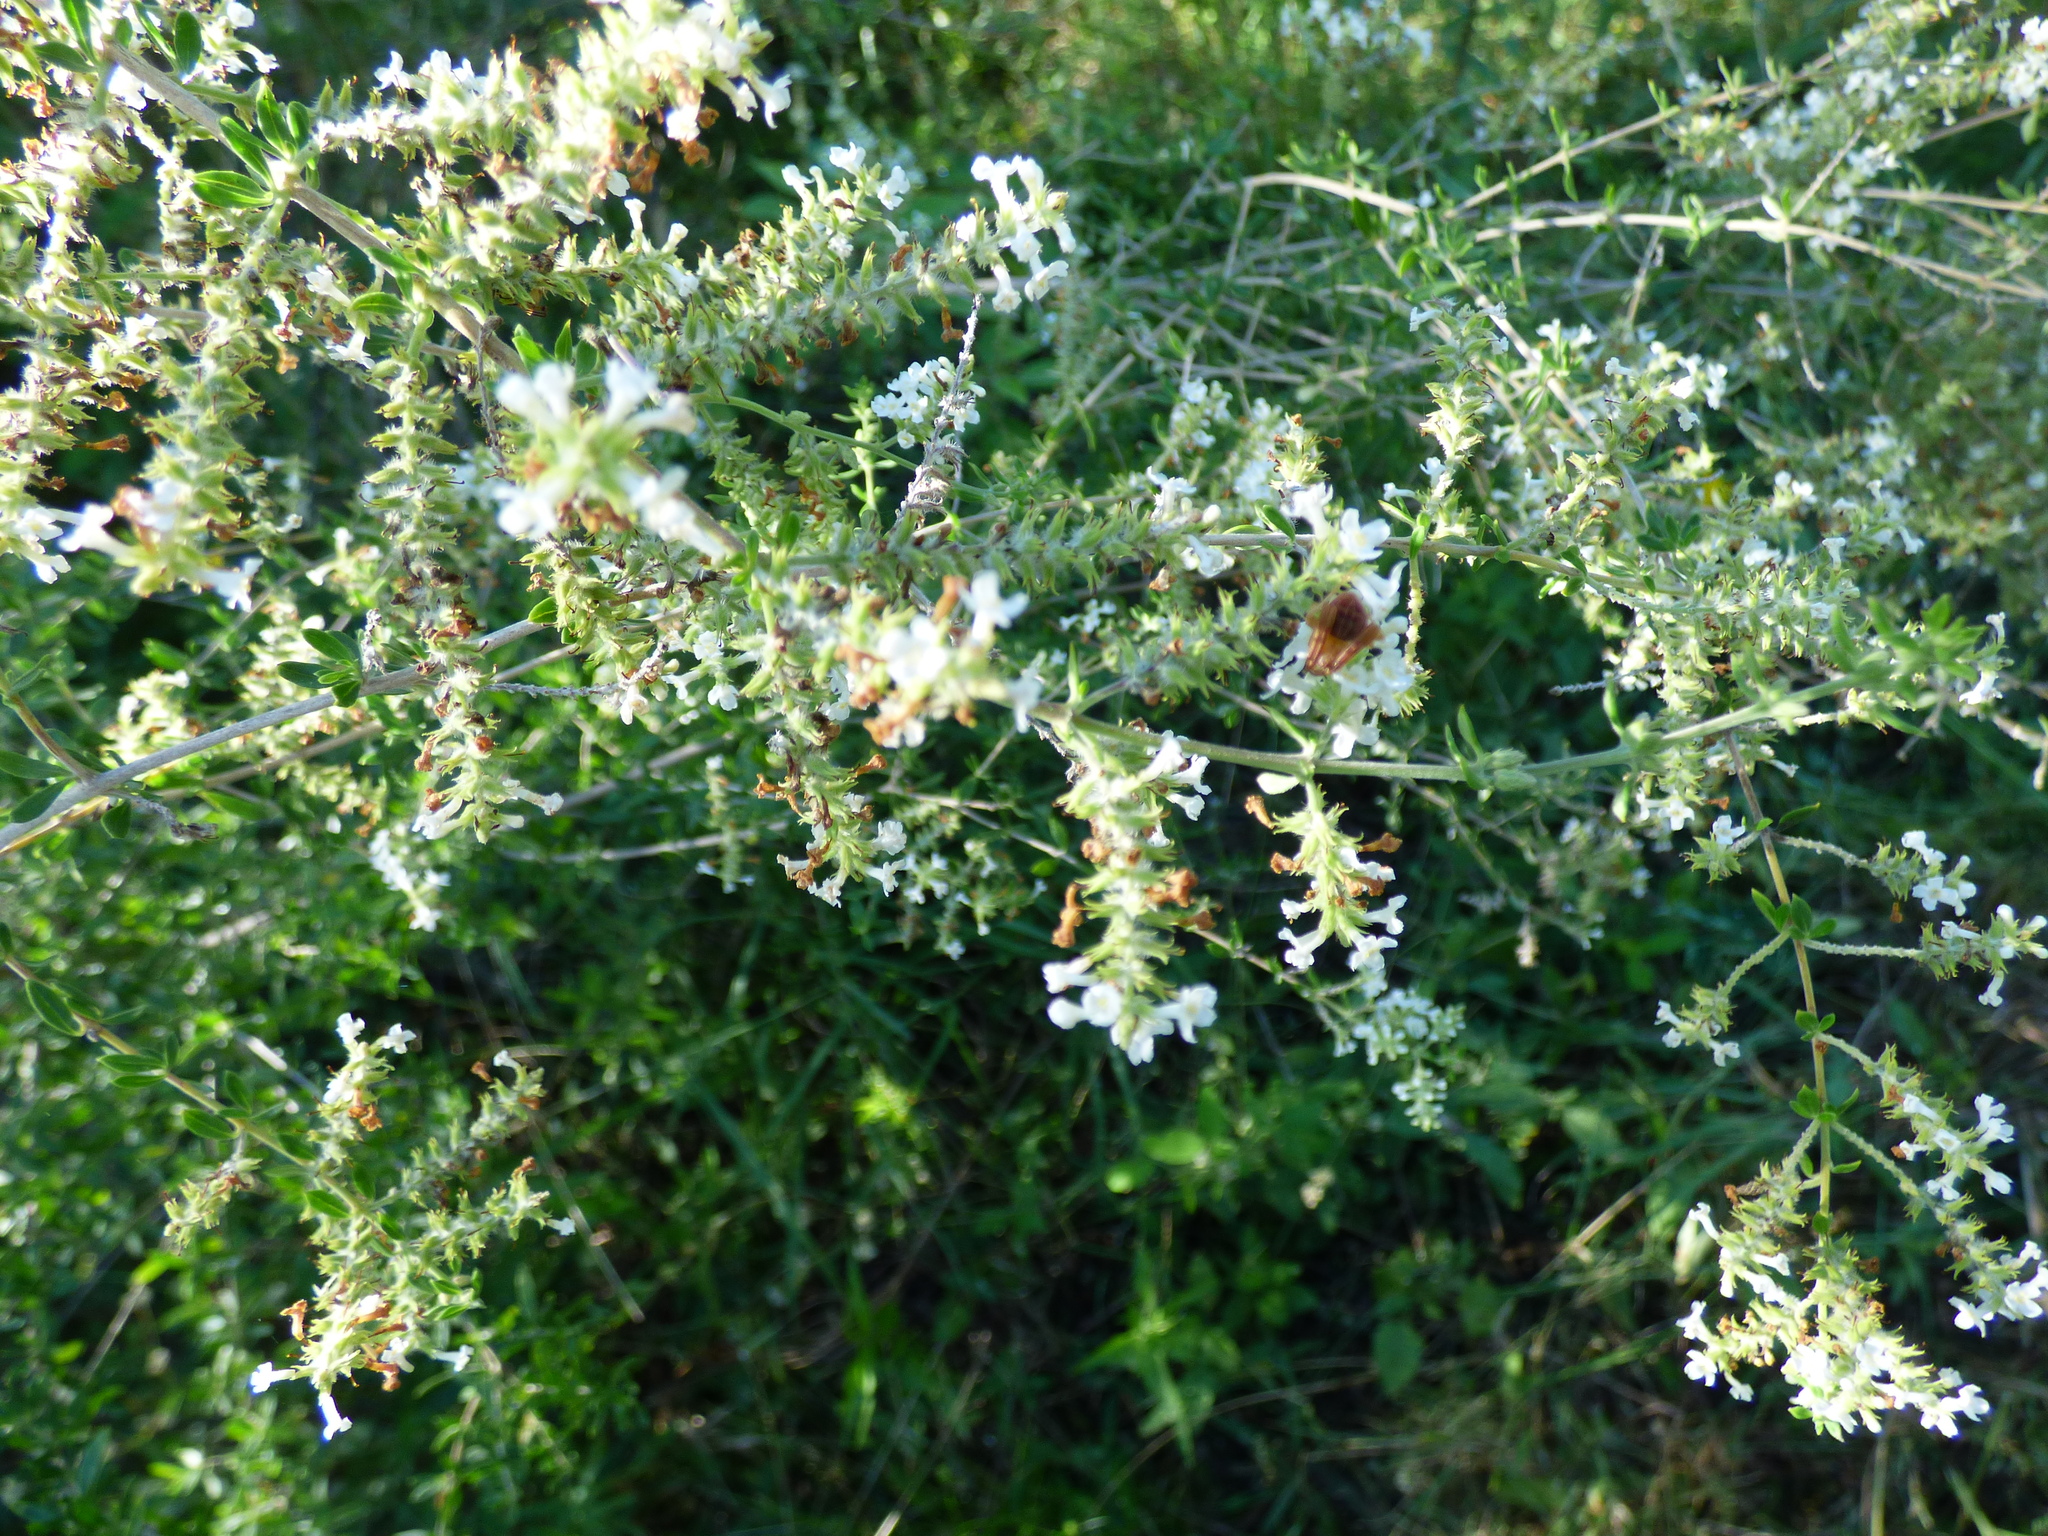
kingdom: Plantae
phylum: Tracheophyta
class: Magnoliopsida
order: Lamiales
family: Verbenaceae
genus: Aloysia
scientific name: Aloysia gratissima
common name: Common bee-brush
